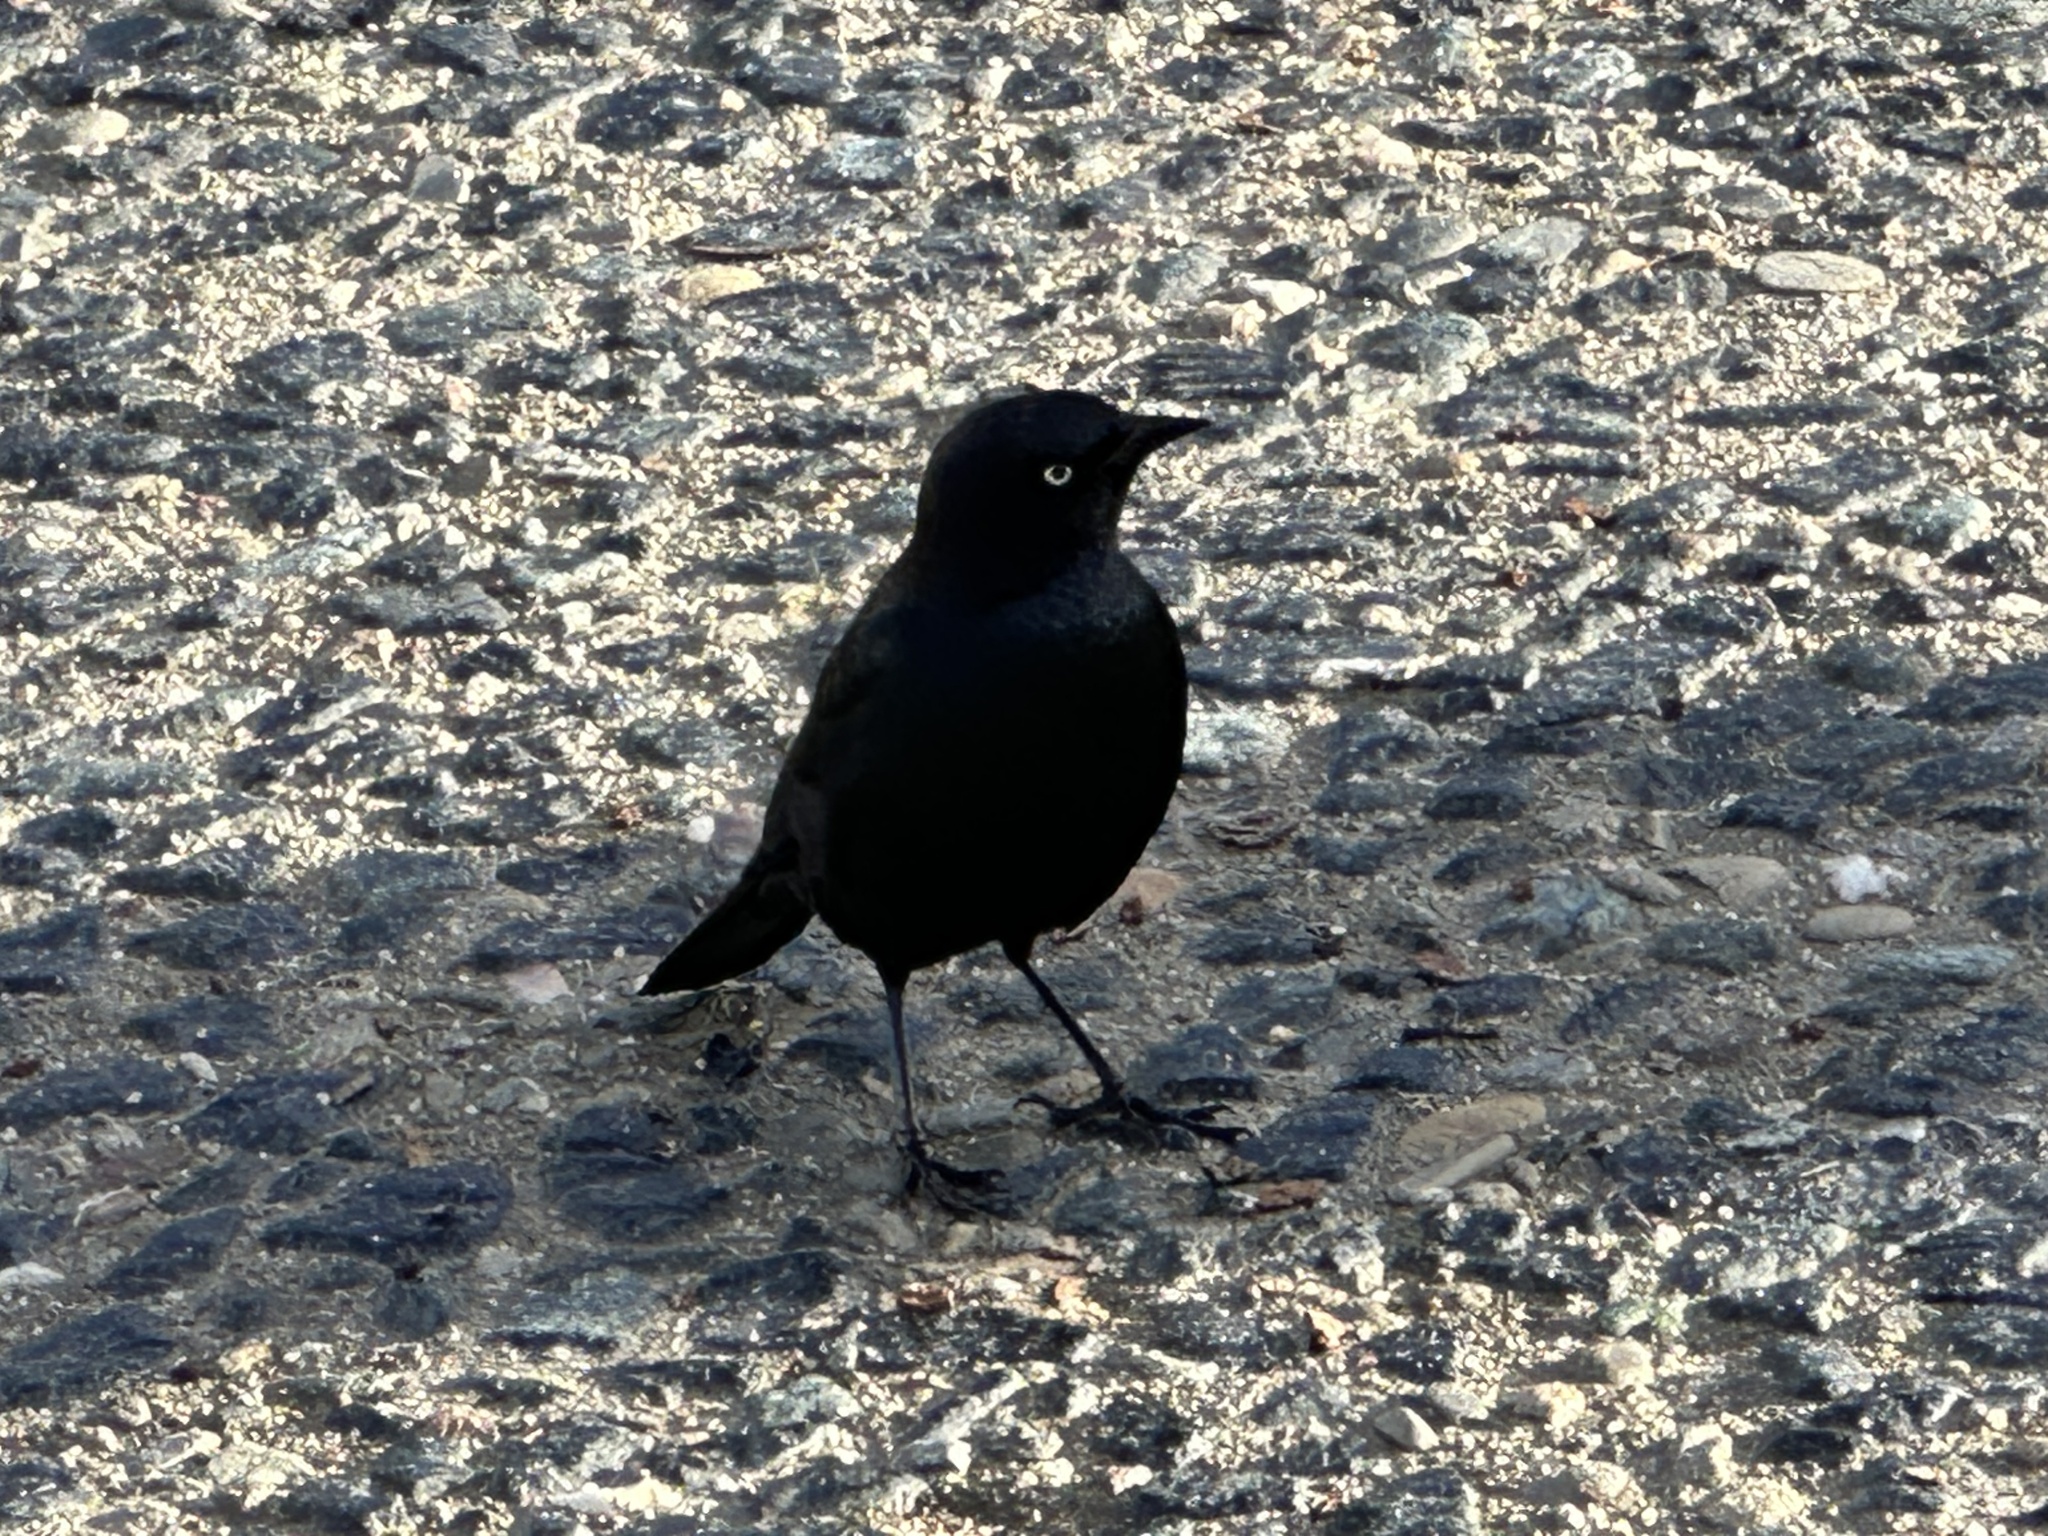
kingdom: Animalia
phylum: Chordata
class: Aves
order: Passeriformes
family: Icteridae
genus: Euphagus
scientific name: Euphagus cyanocephalus
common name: Brewer's blackbird
